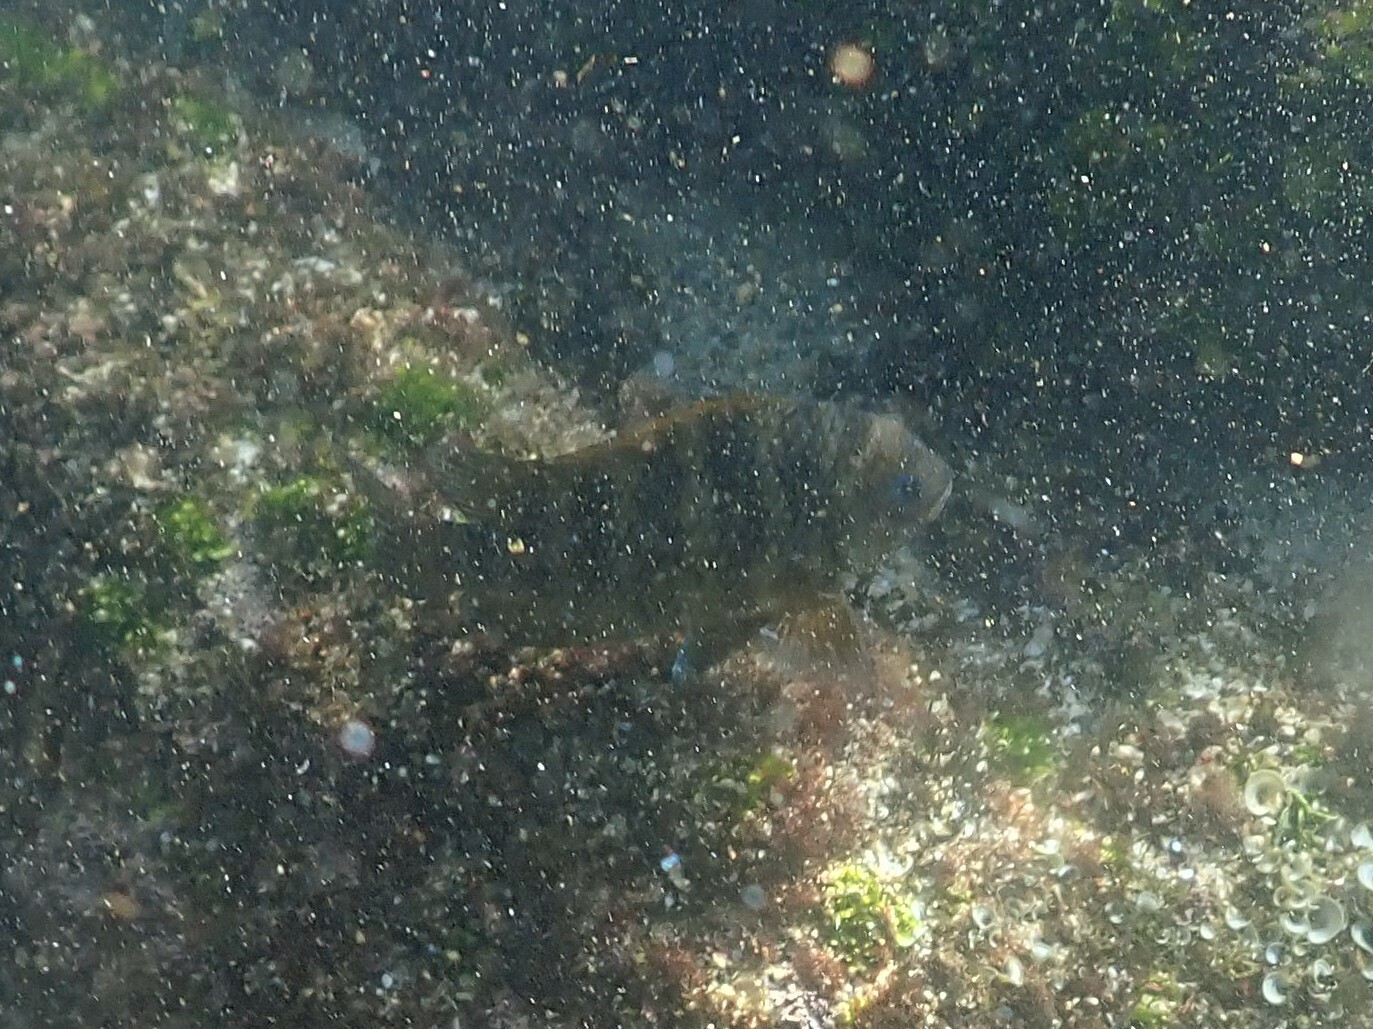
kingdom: Animalia
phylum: Chordata
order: Perciformes
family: Pomacentridae
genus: Abudefduf
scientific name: Abudefduf declivifrons
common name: Mexican night sergeant
